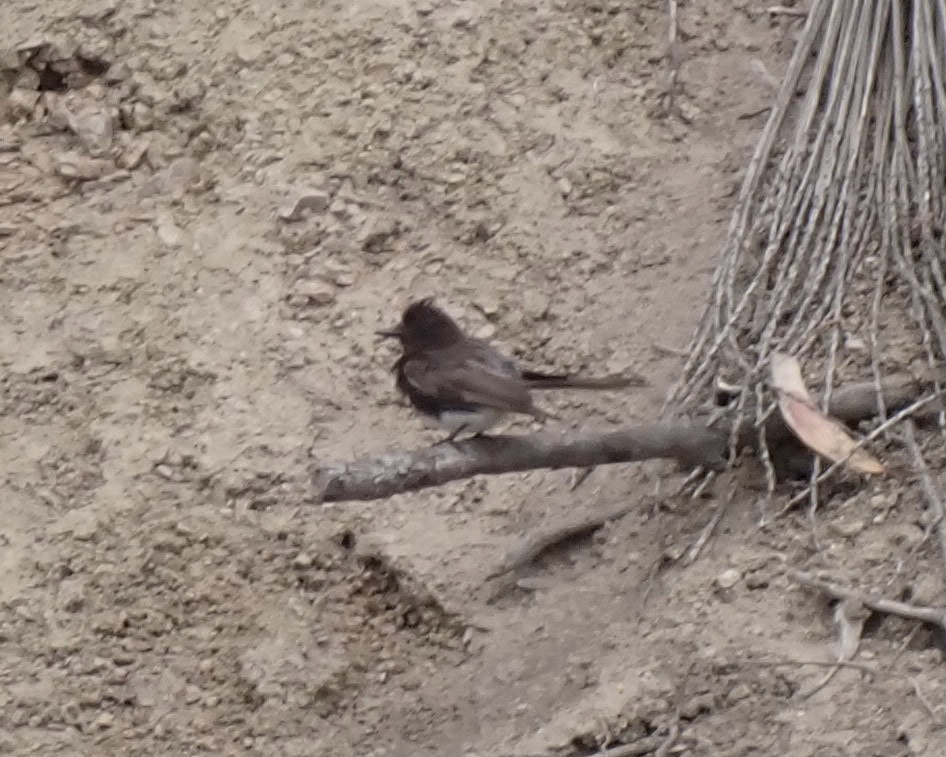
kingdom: Animalia
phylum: Chordata
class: Aves
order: Passeriformes
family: Tyrannidae
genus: Sayornis
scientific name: Sayornis nigricans
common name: Black phoebe
